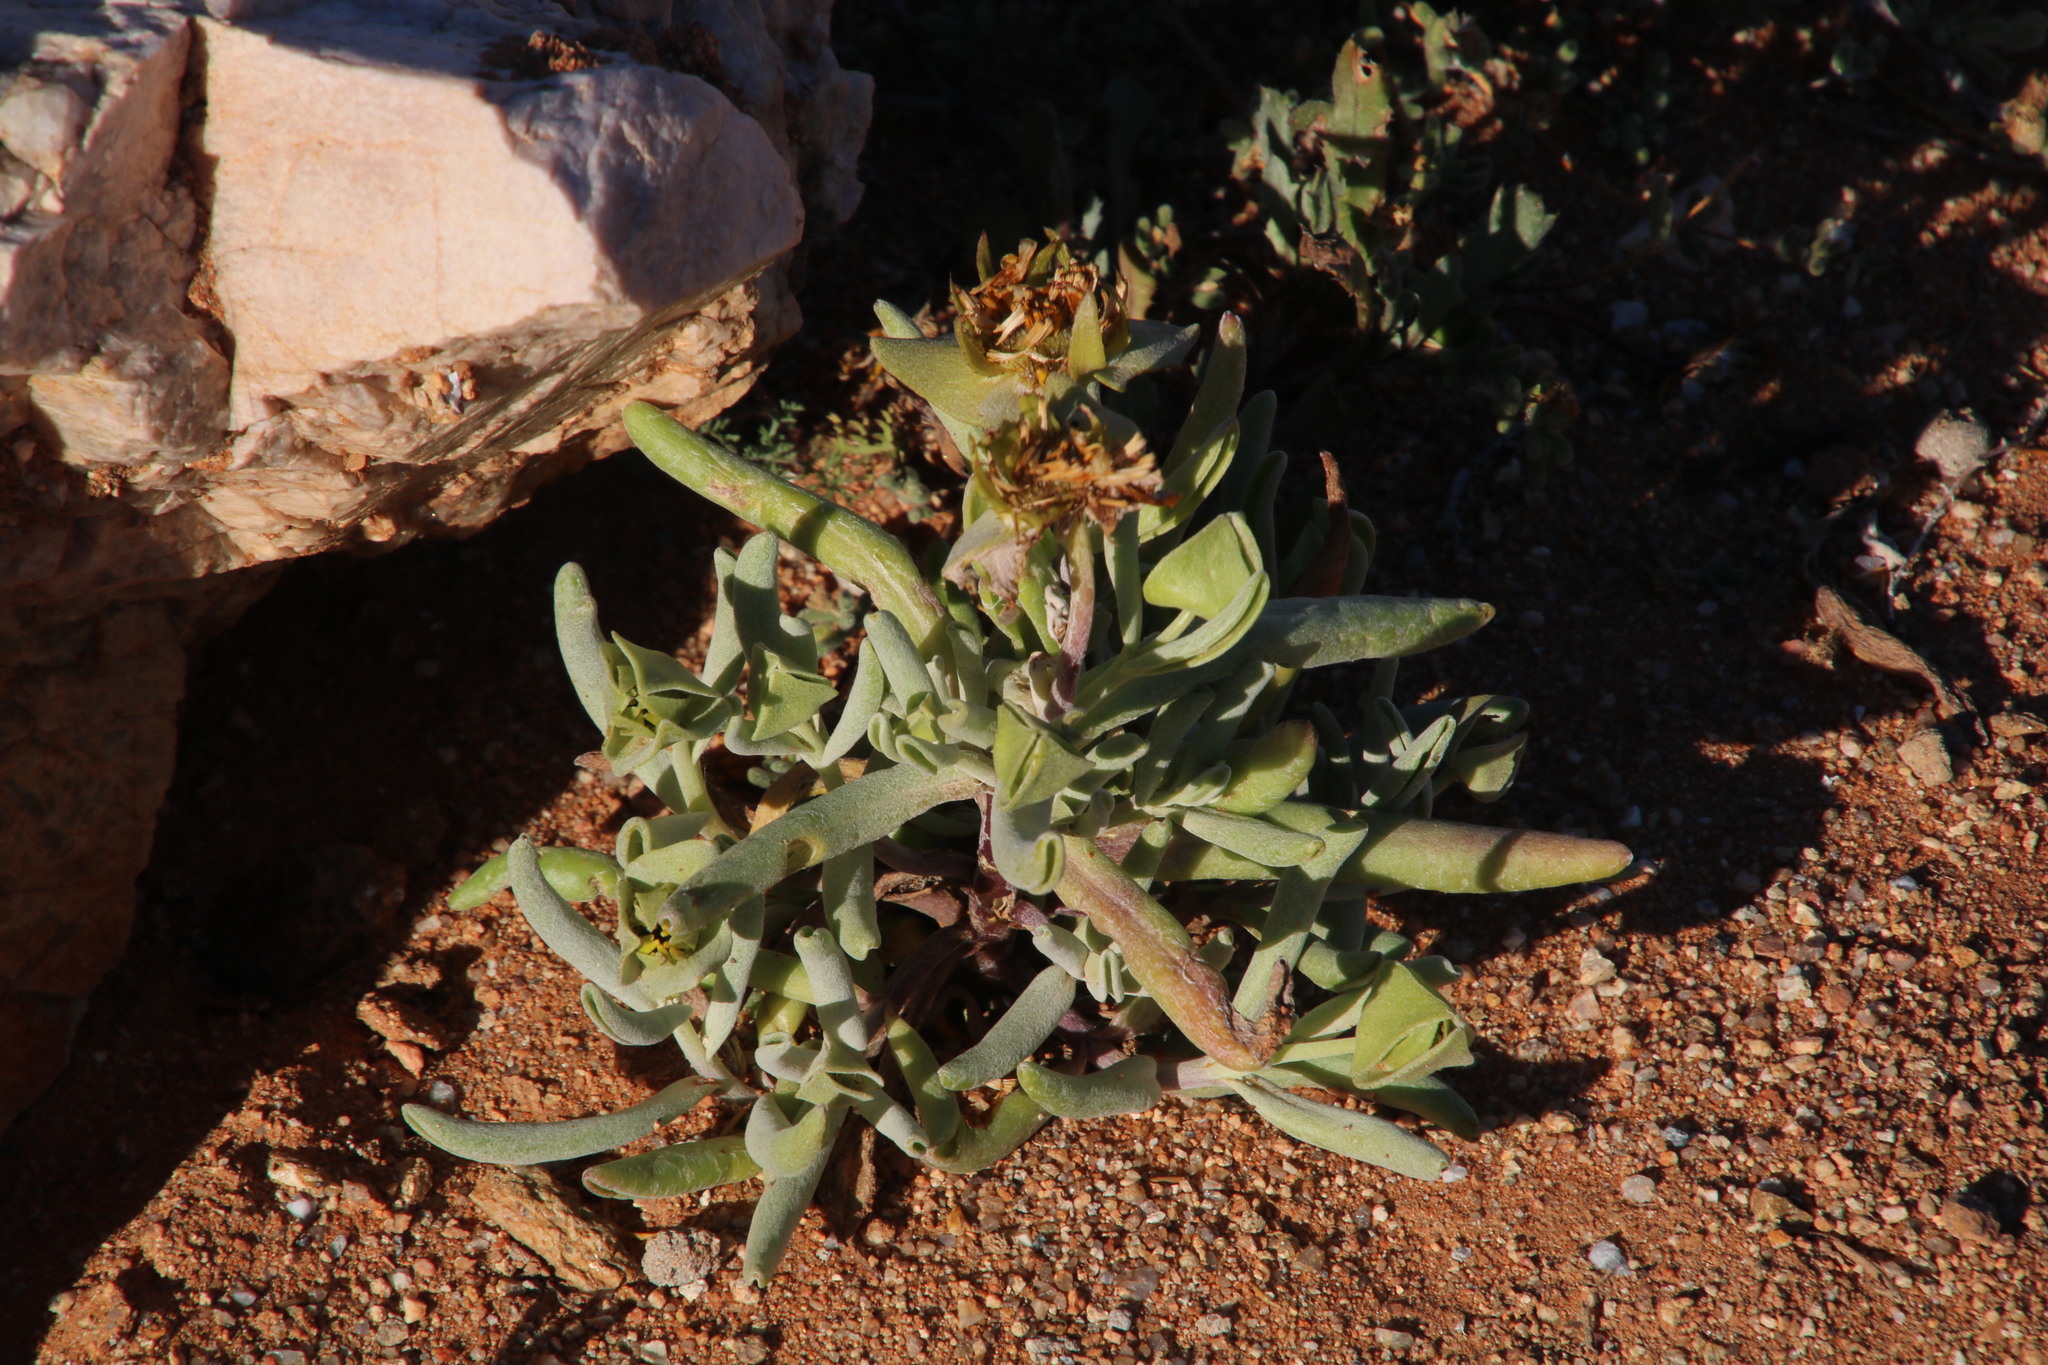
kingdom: Plantae
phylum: Tracheophyta
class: Magnoliopsida
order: Asterales
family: Asteraceae
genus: Didelta
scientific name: Didelta carnosa
